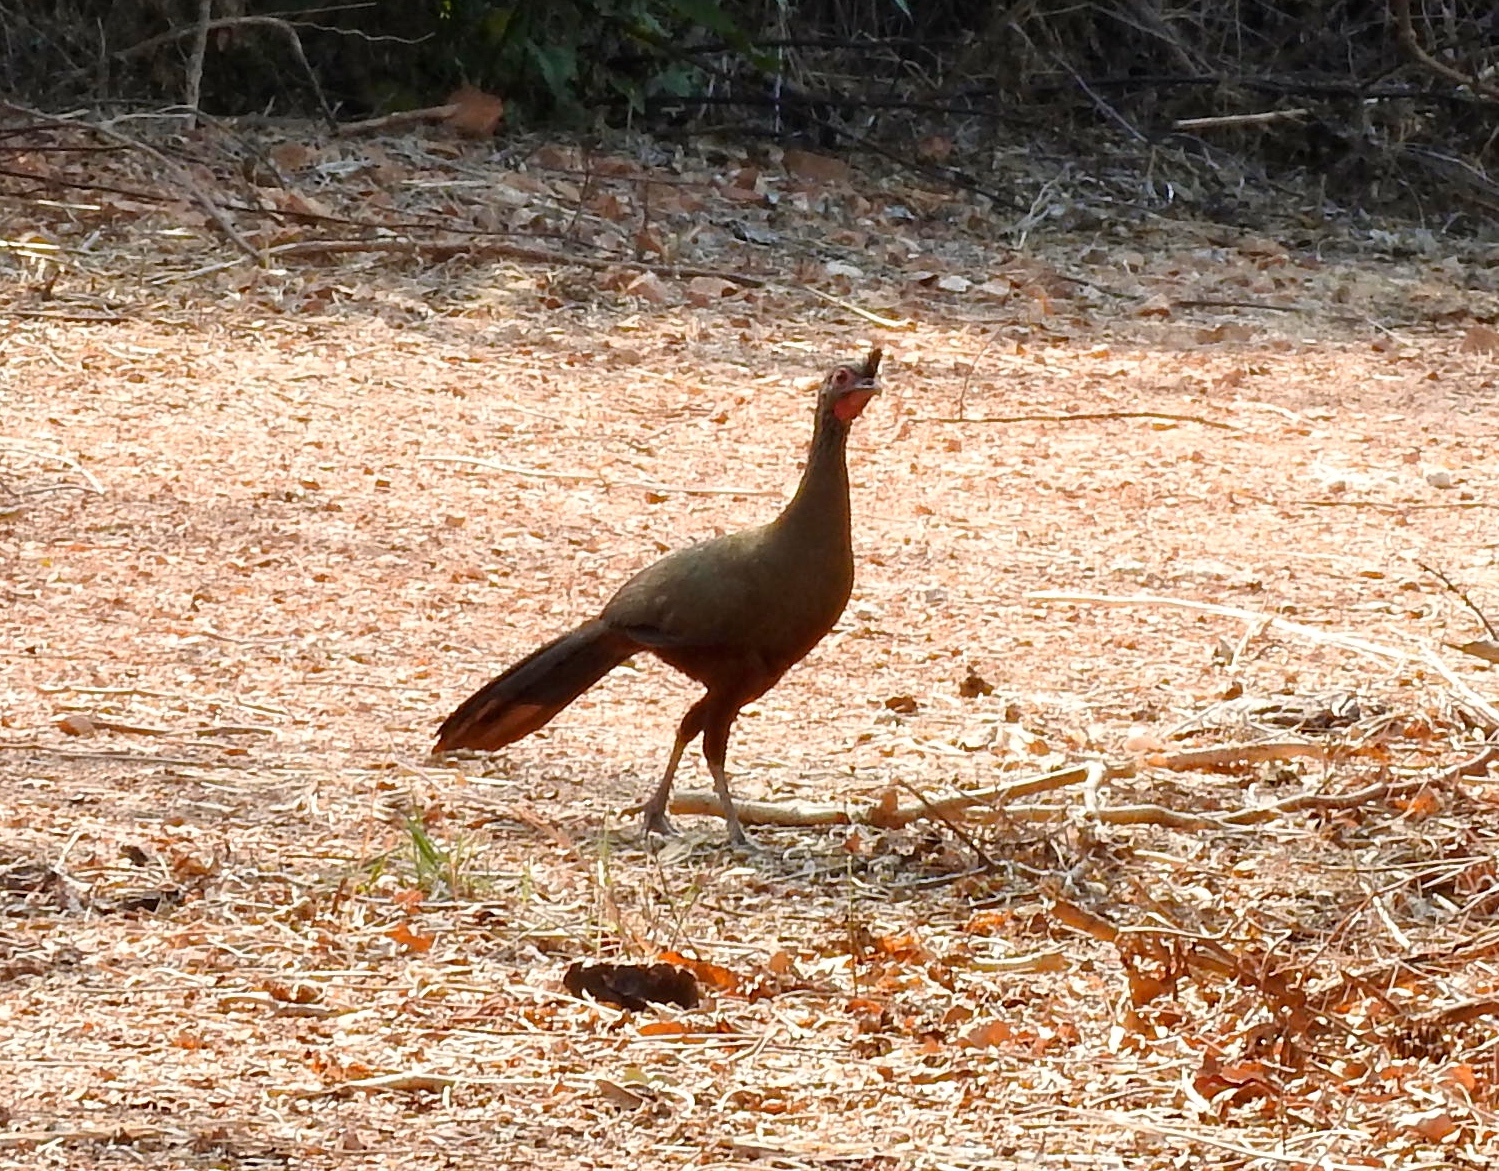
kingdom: Animalia
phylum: Chordata
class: Aves
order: Galliformes
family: Cracidae
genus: Ortalis
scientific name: Ortalis wagleri
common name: Rufous-bellied chachalaca
